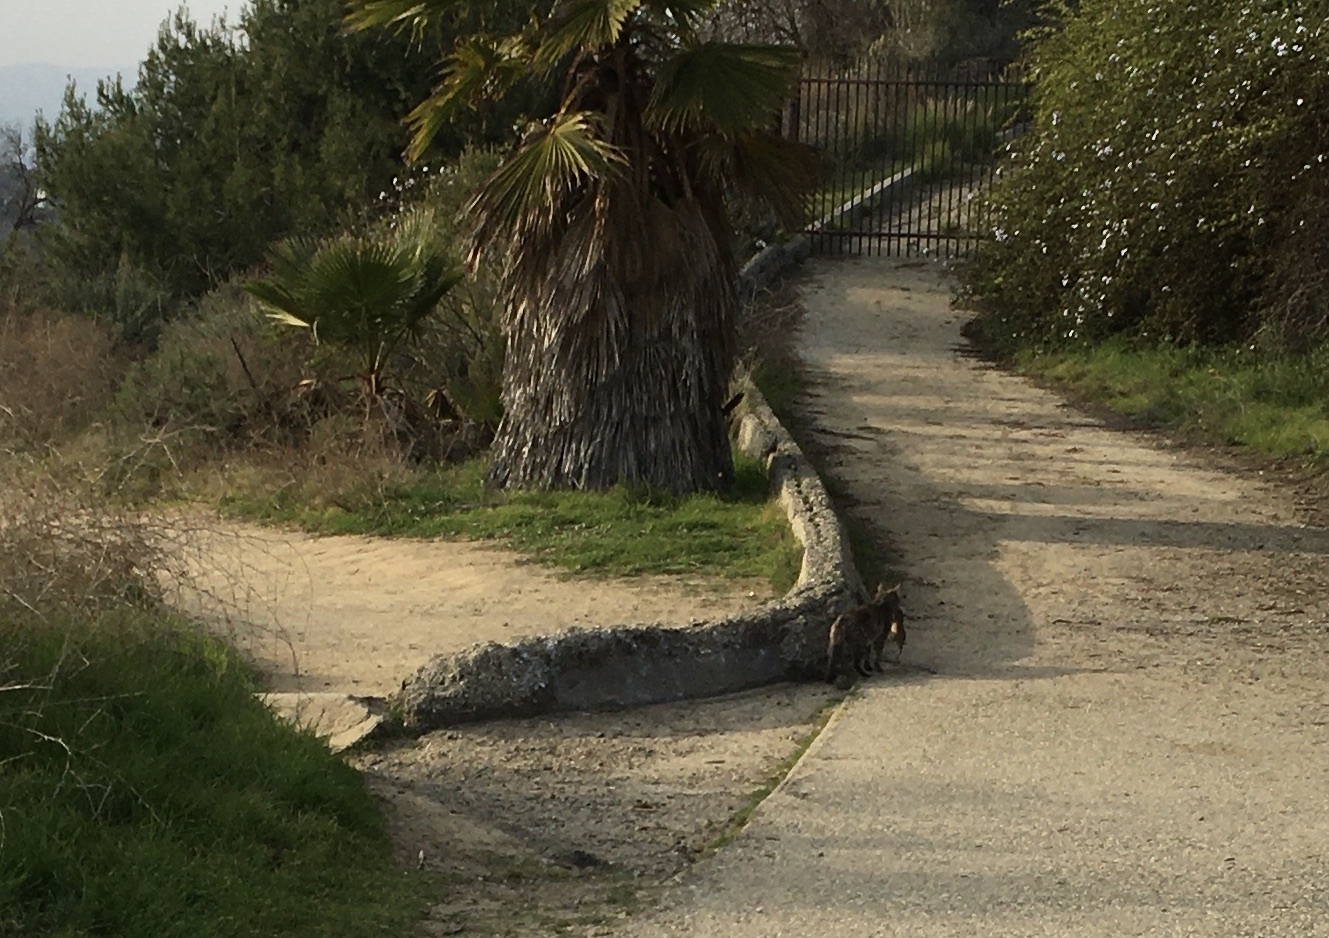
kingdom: Animalia
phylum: Chordata
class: Mammalia
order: Rodentia
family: Geomyidae
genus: Thomomys
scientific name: Thomomys bottae
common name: Botta's pocket gopher
